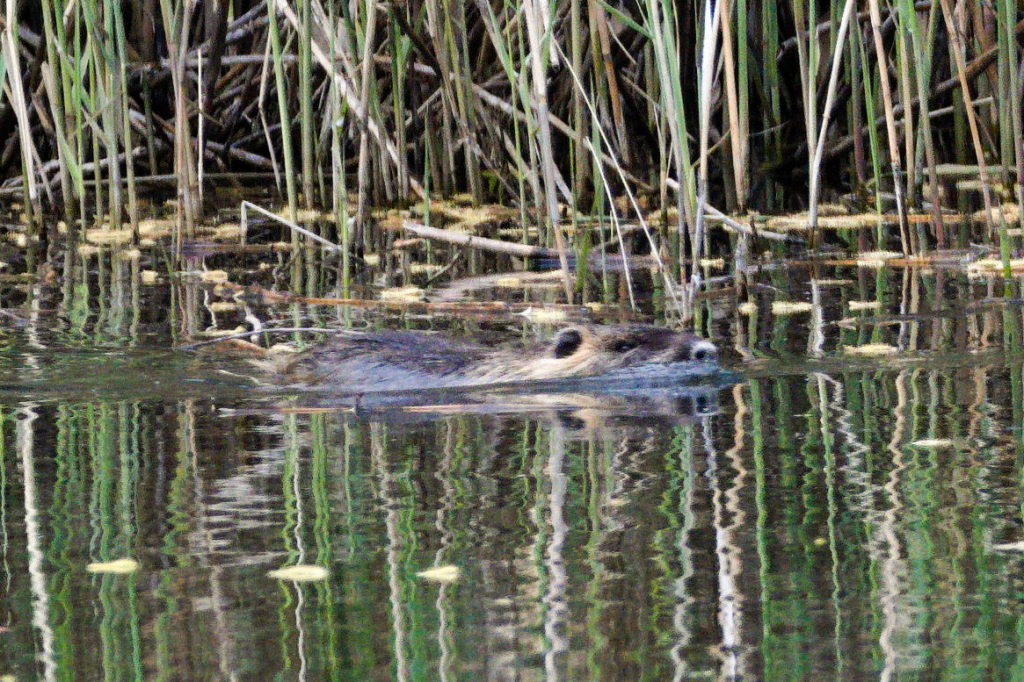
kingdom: Animalia
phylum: Chordata
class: Mammalia
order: Rodentia
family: Myocastoridae
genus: Myocastor
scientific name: Myocastor coypus
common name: Coypu
